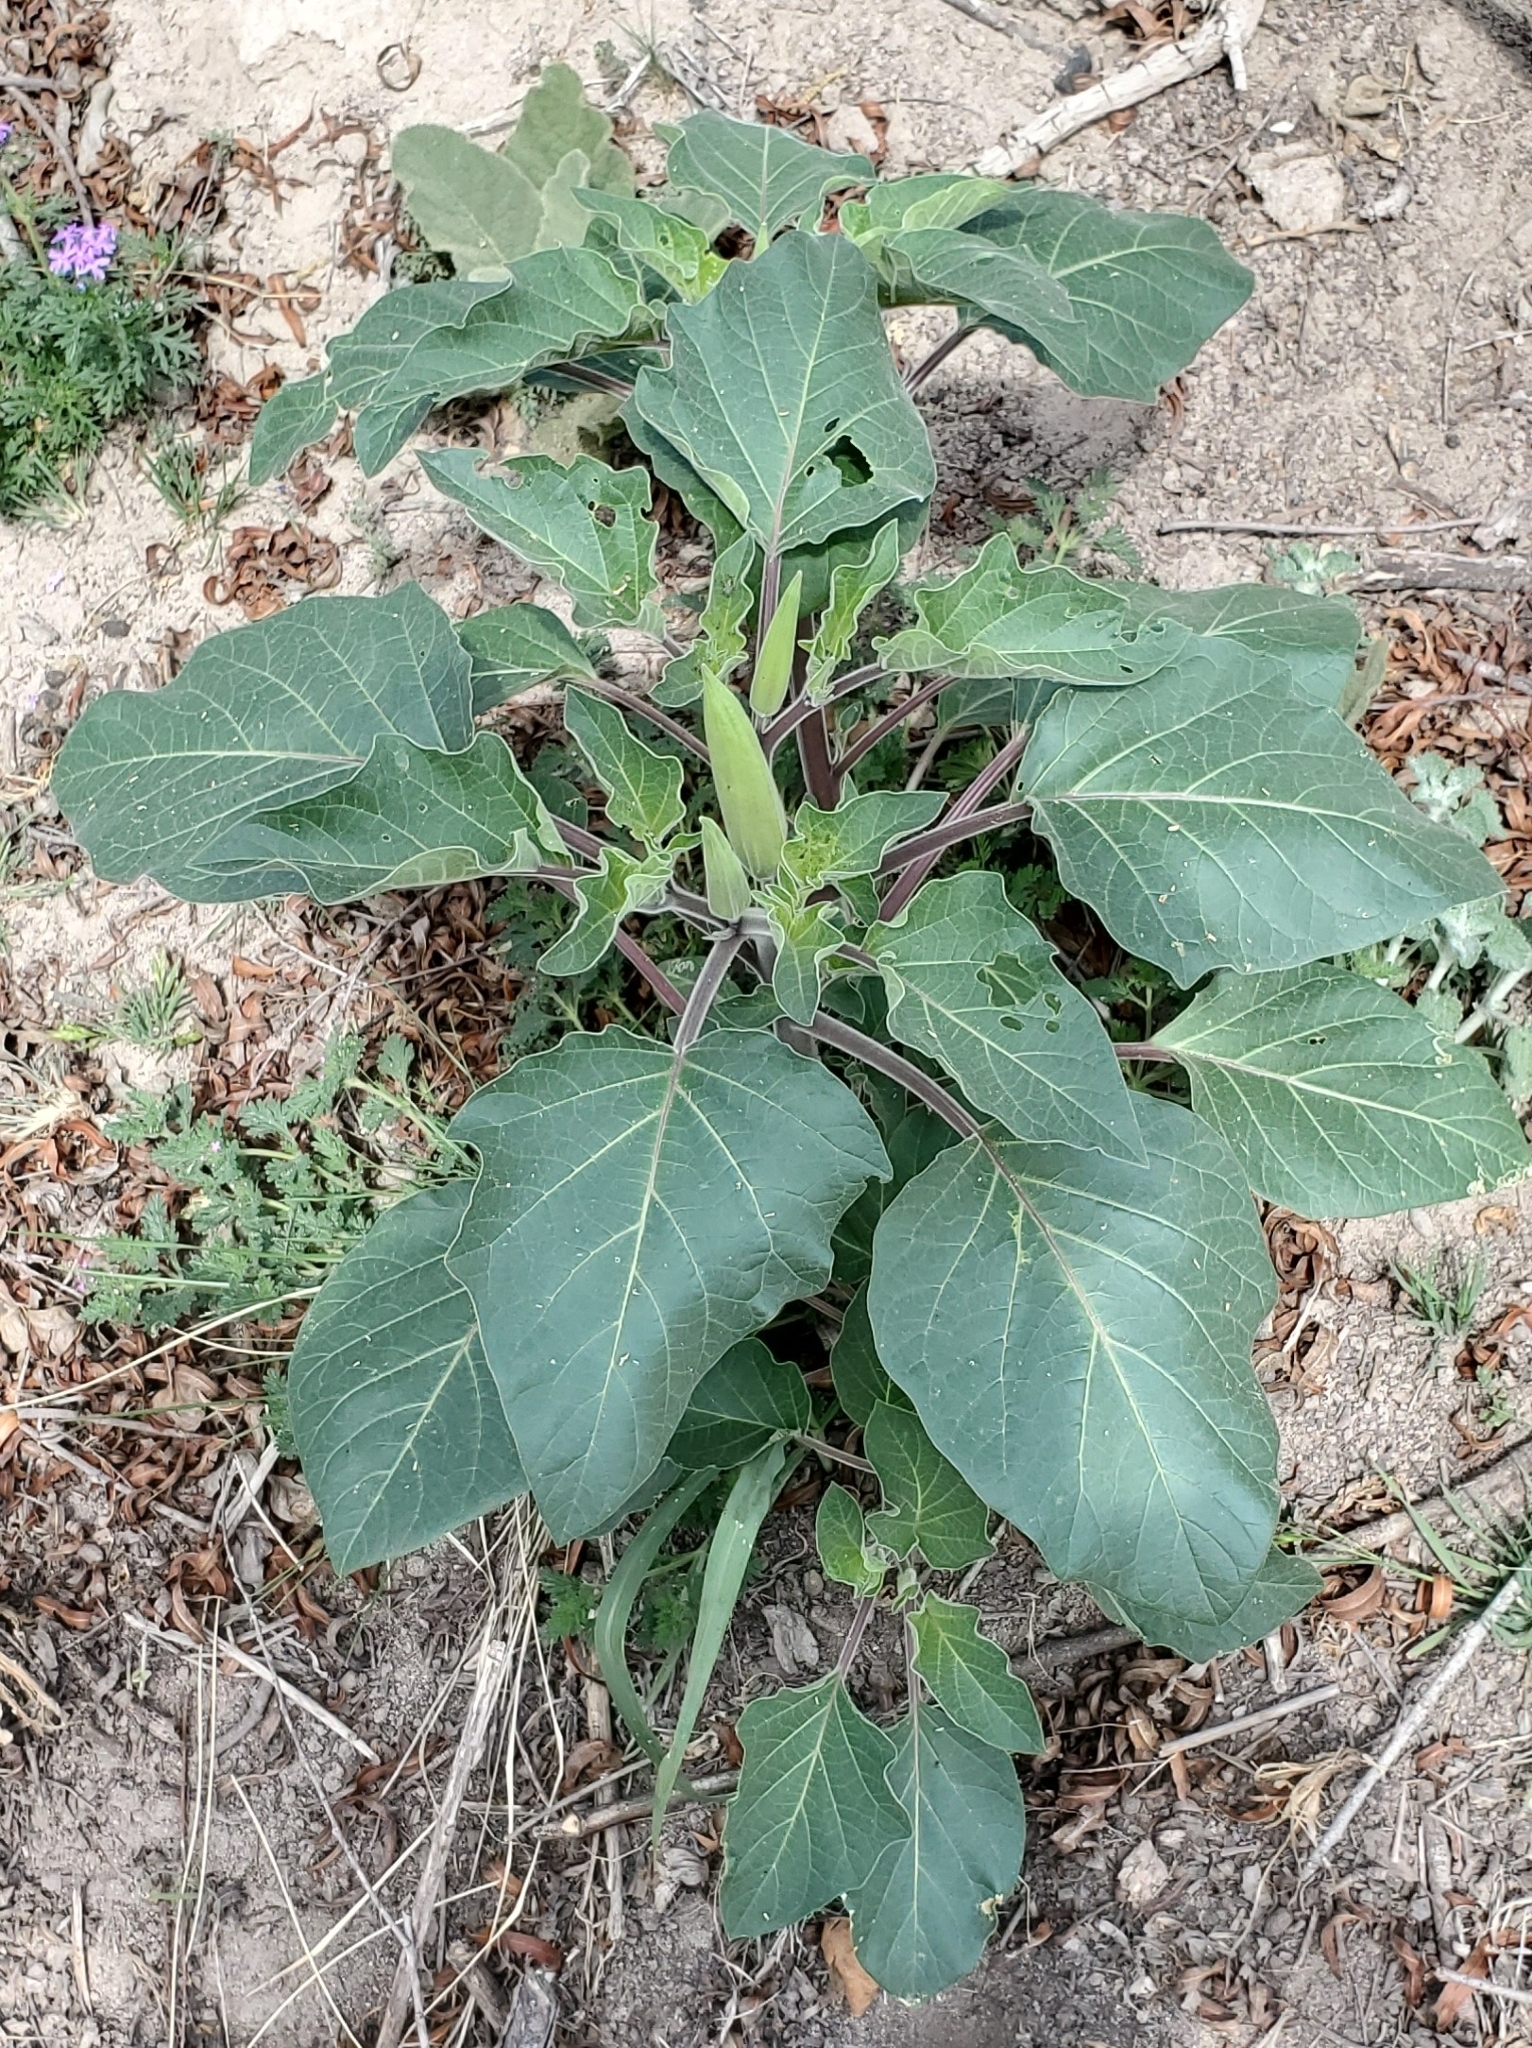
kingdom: Plantae
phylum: Tracheophyta
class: Magnoliopsida
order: Solanales
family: Solanaceae
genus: Datura
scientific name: Datura innoxia
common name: Downy thorn-apple
